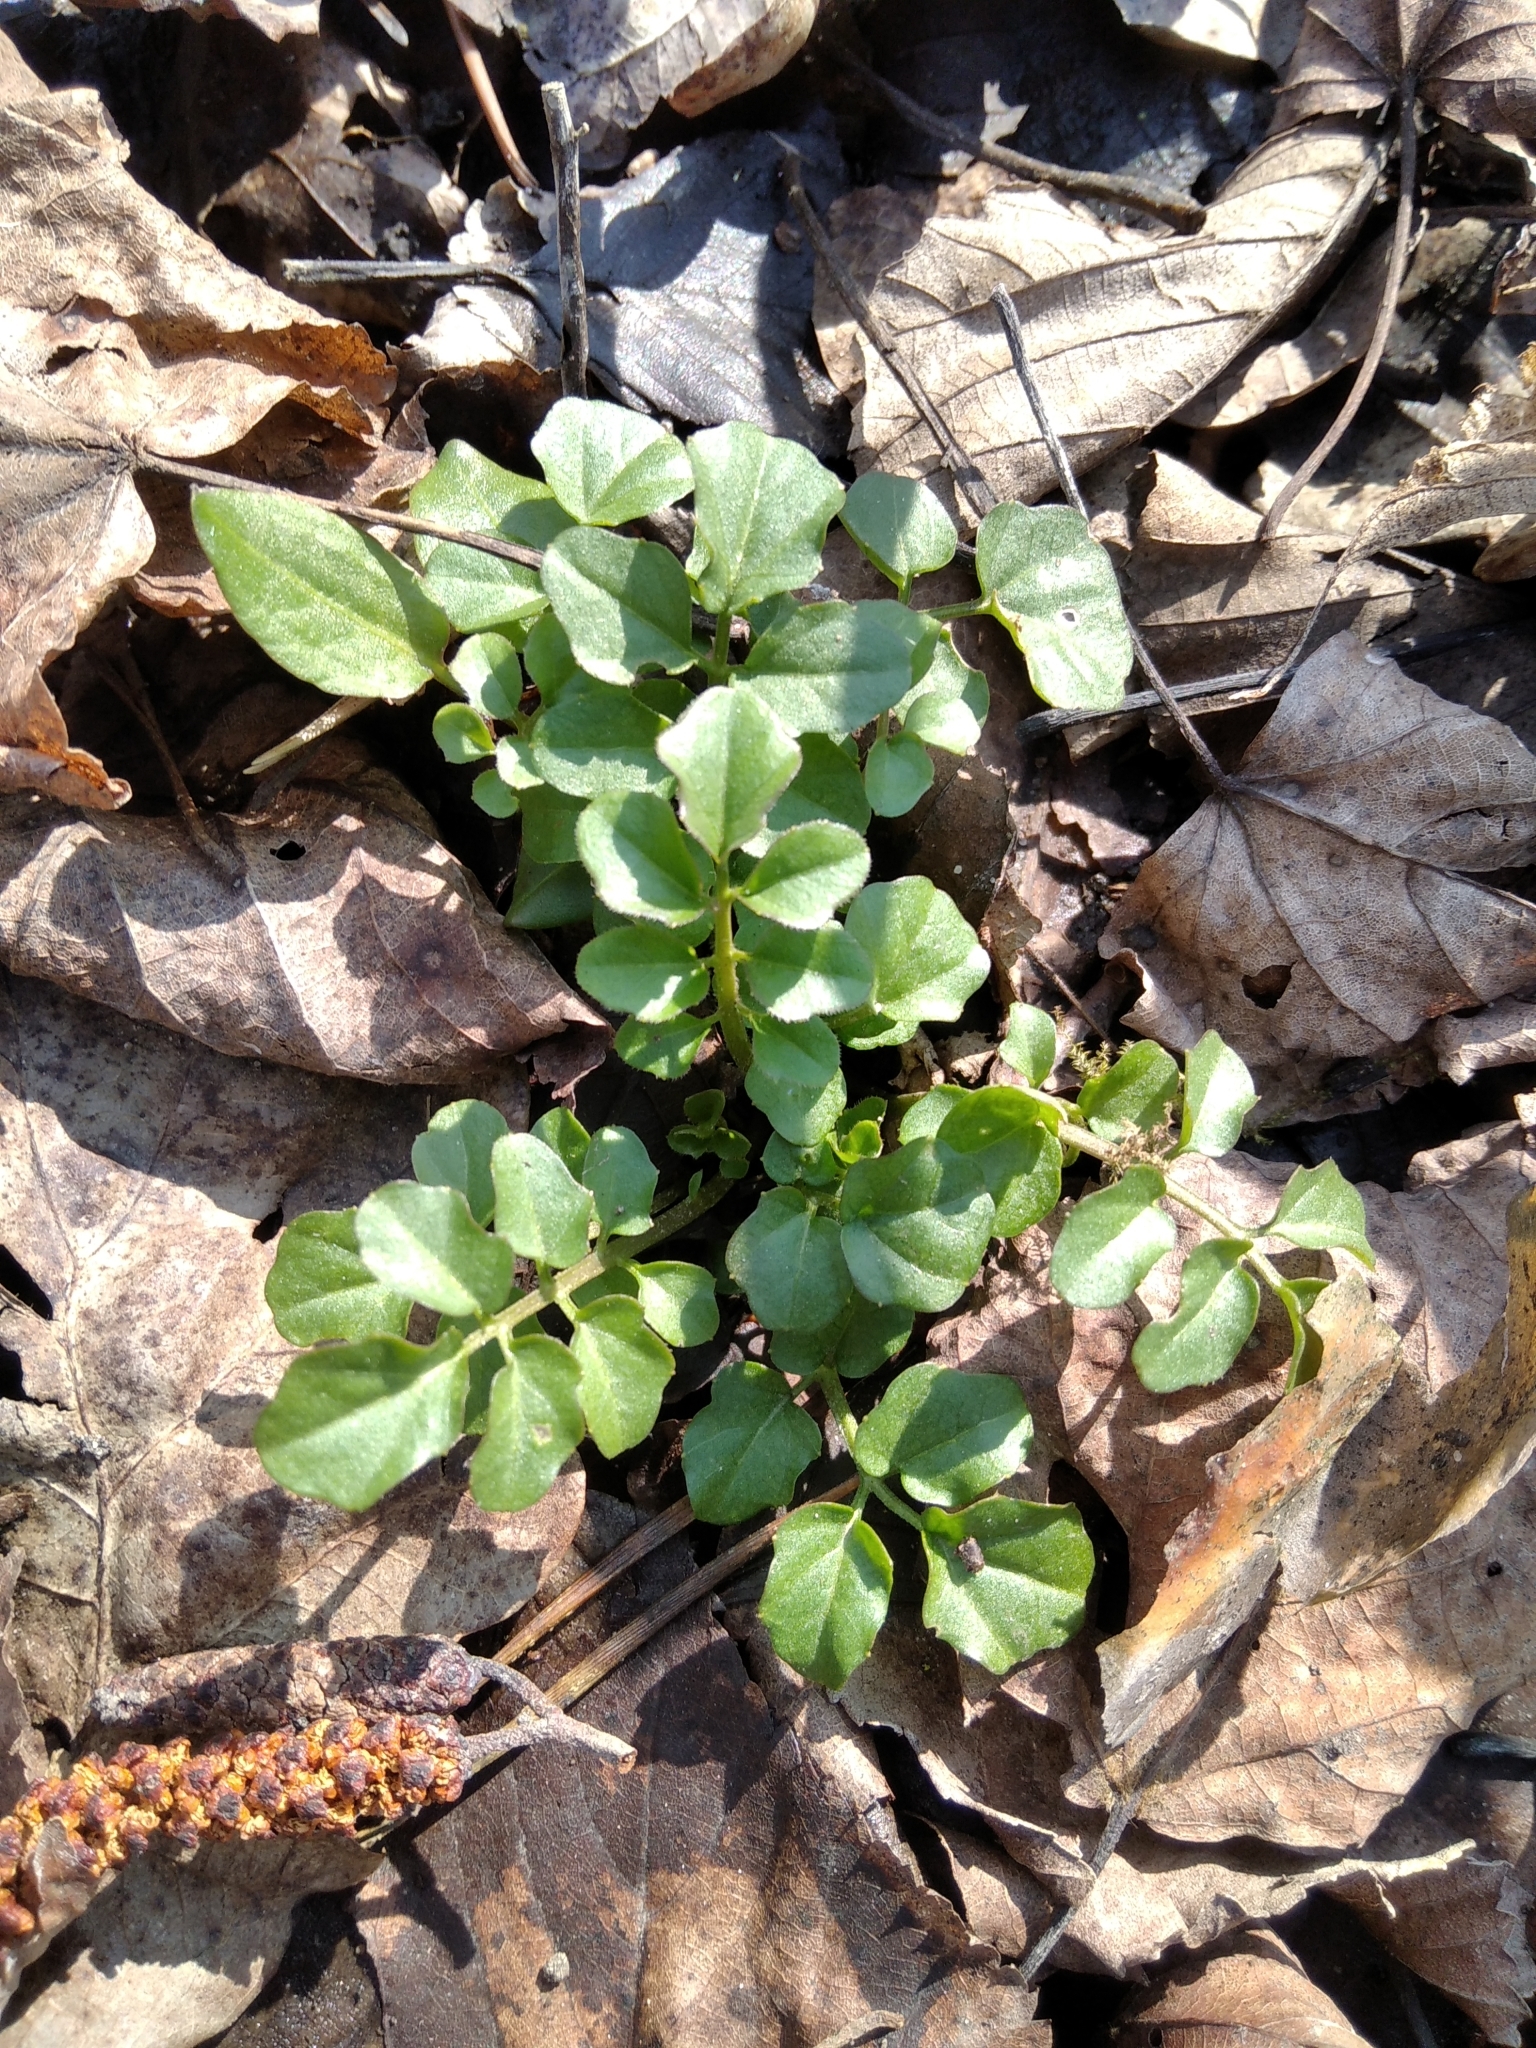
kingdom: Plantae
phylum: Tracheophyta
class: Magnoliopsida
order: Brassicales
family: Brassicaceae
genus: Cardamine
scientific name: Cardamine amara
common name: Large bitter-cress
